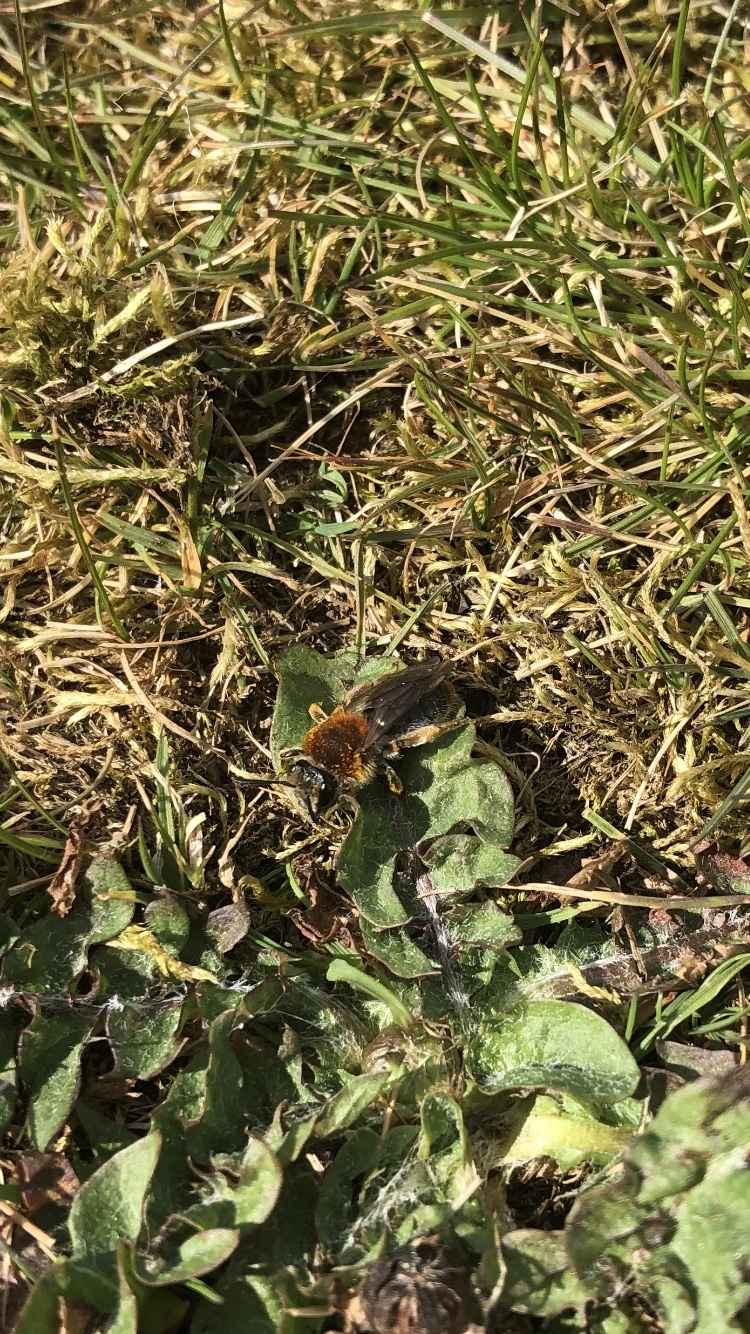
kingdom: Animalia
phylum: Arthropoda
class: Insecta
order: Hymenoptera
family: Andrenidae
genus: Andrena
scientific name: Andrena haemorrhoa
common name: Early mining bee
